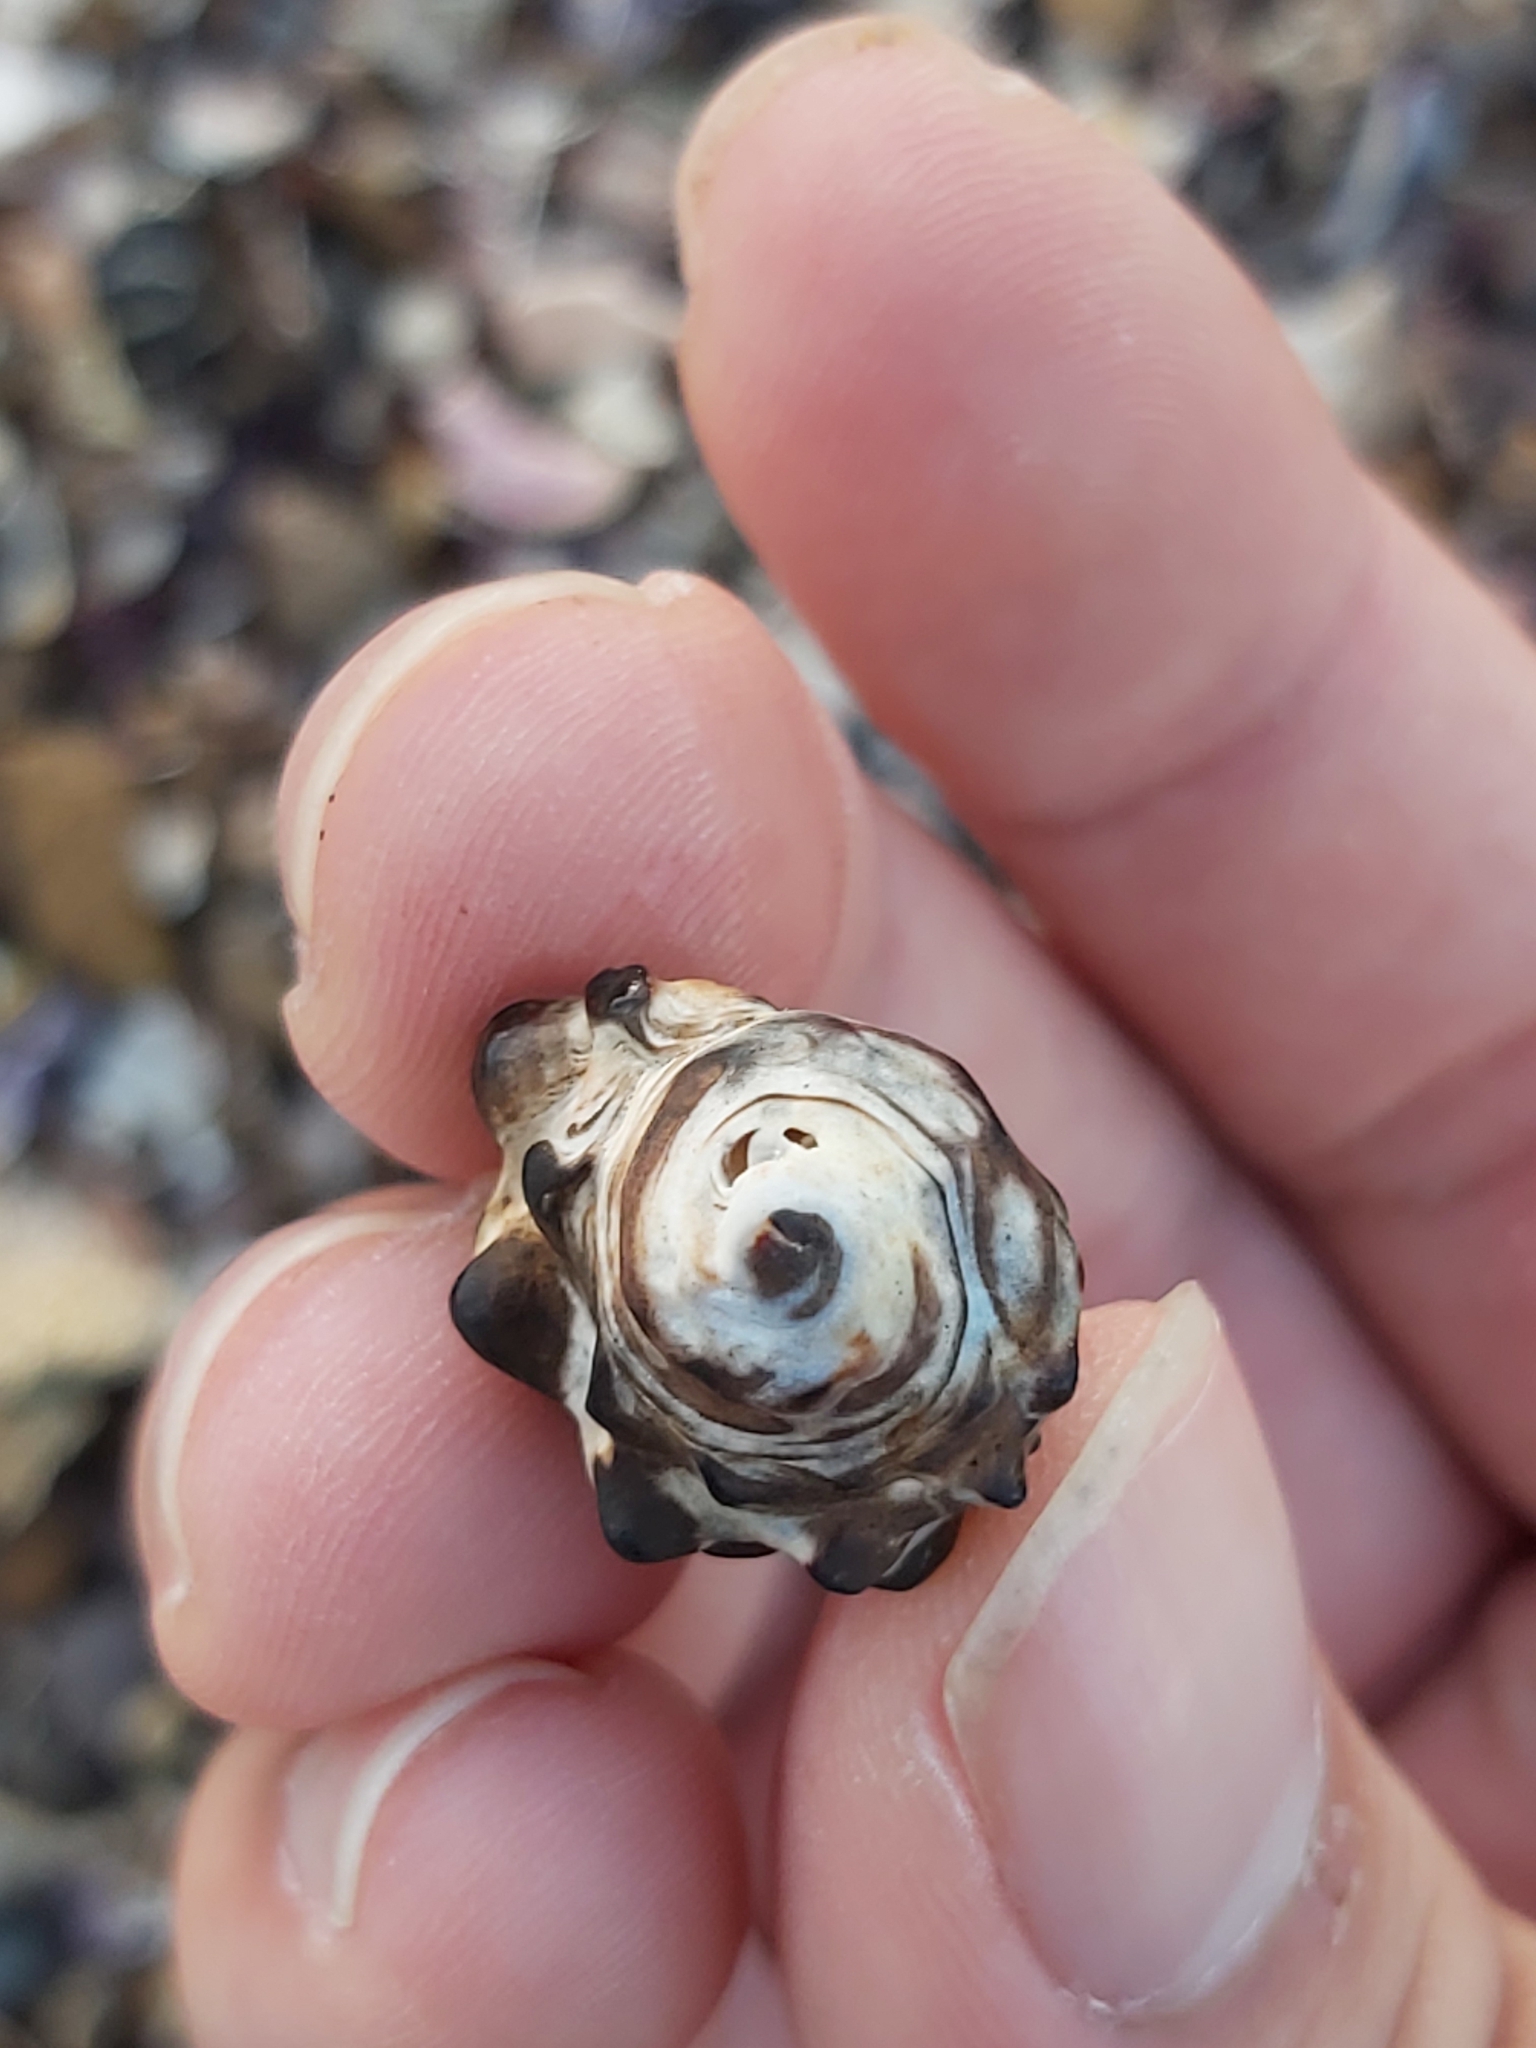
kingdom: Animalia
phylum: Mollusca
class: Gastropoda
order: Neogastropoda
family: Muricidae
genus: Tenguella
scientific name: Tenguella marginalba
